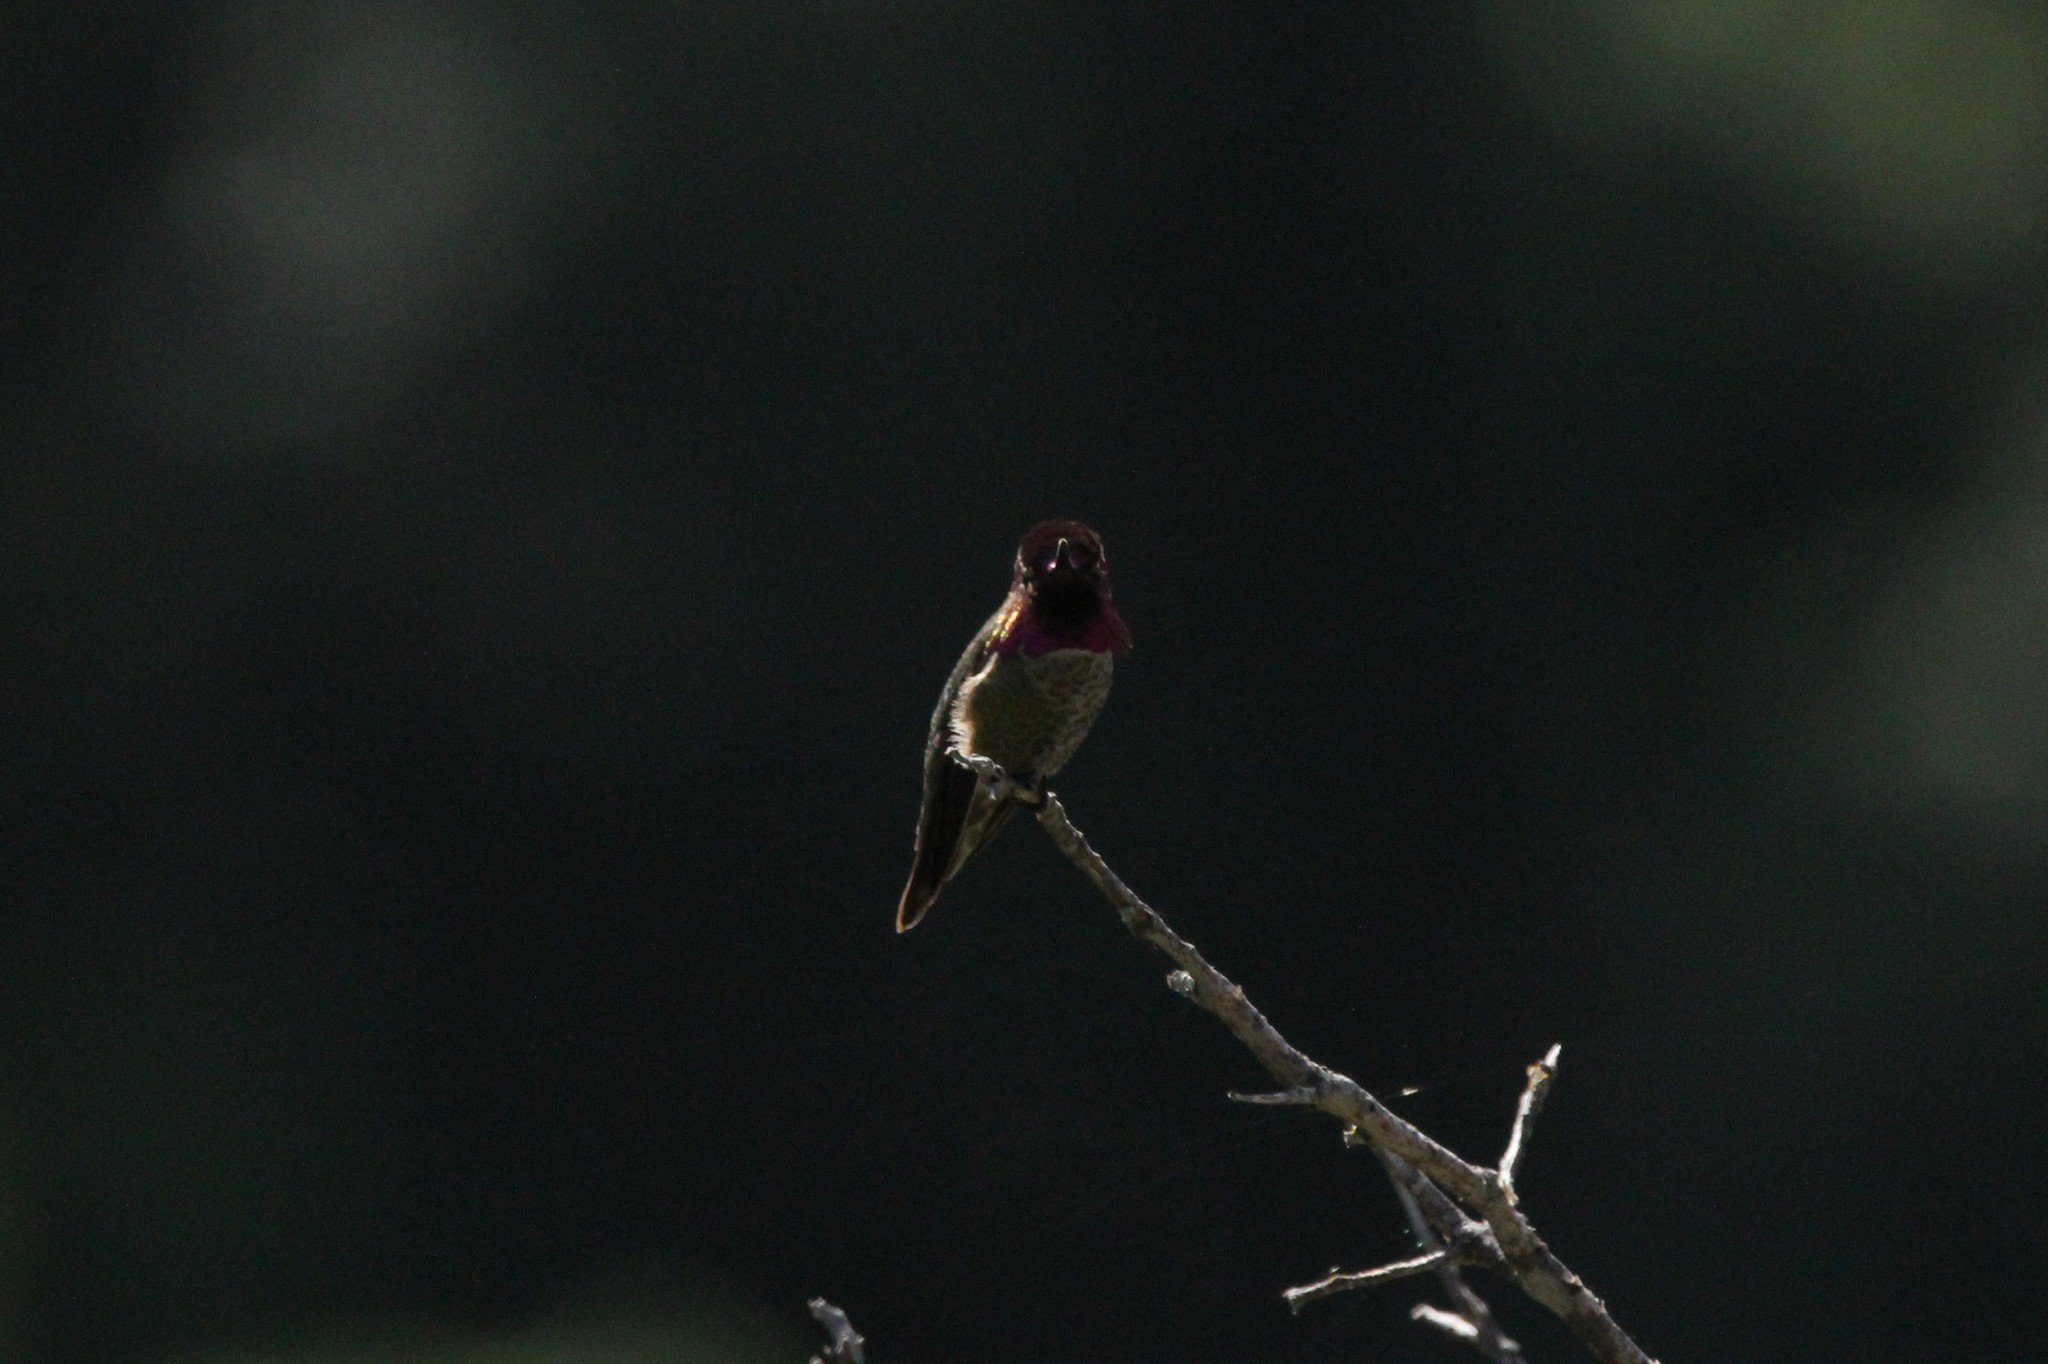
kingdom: Animalia
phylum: Chordata
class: Aves
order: Apodiformes
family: Trochilidae
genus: Calypte
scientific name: Calypte anna
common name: Anna's hummingbird
